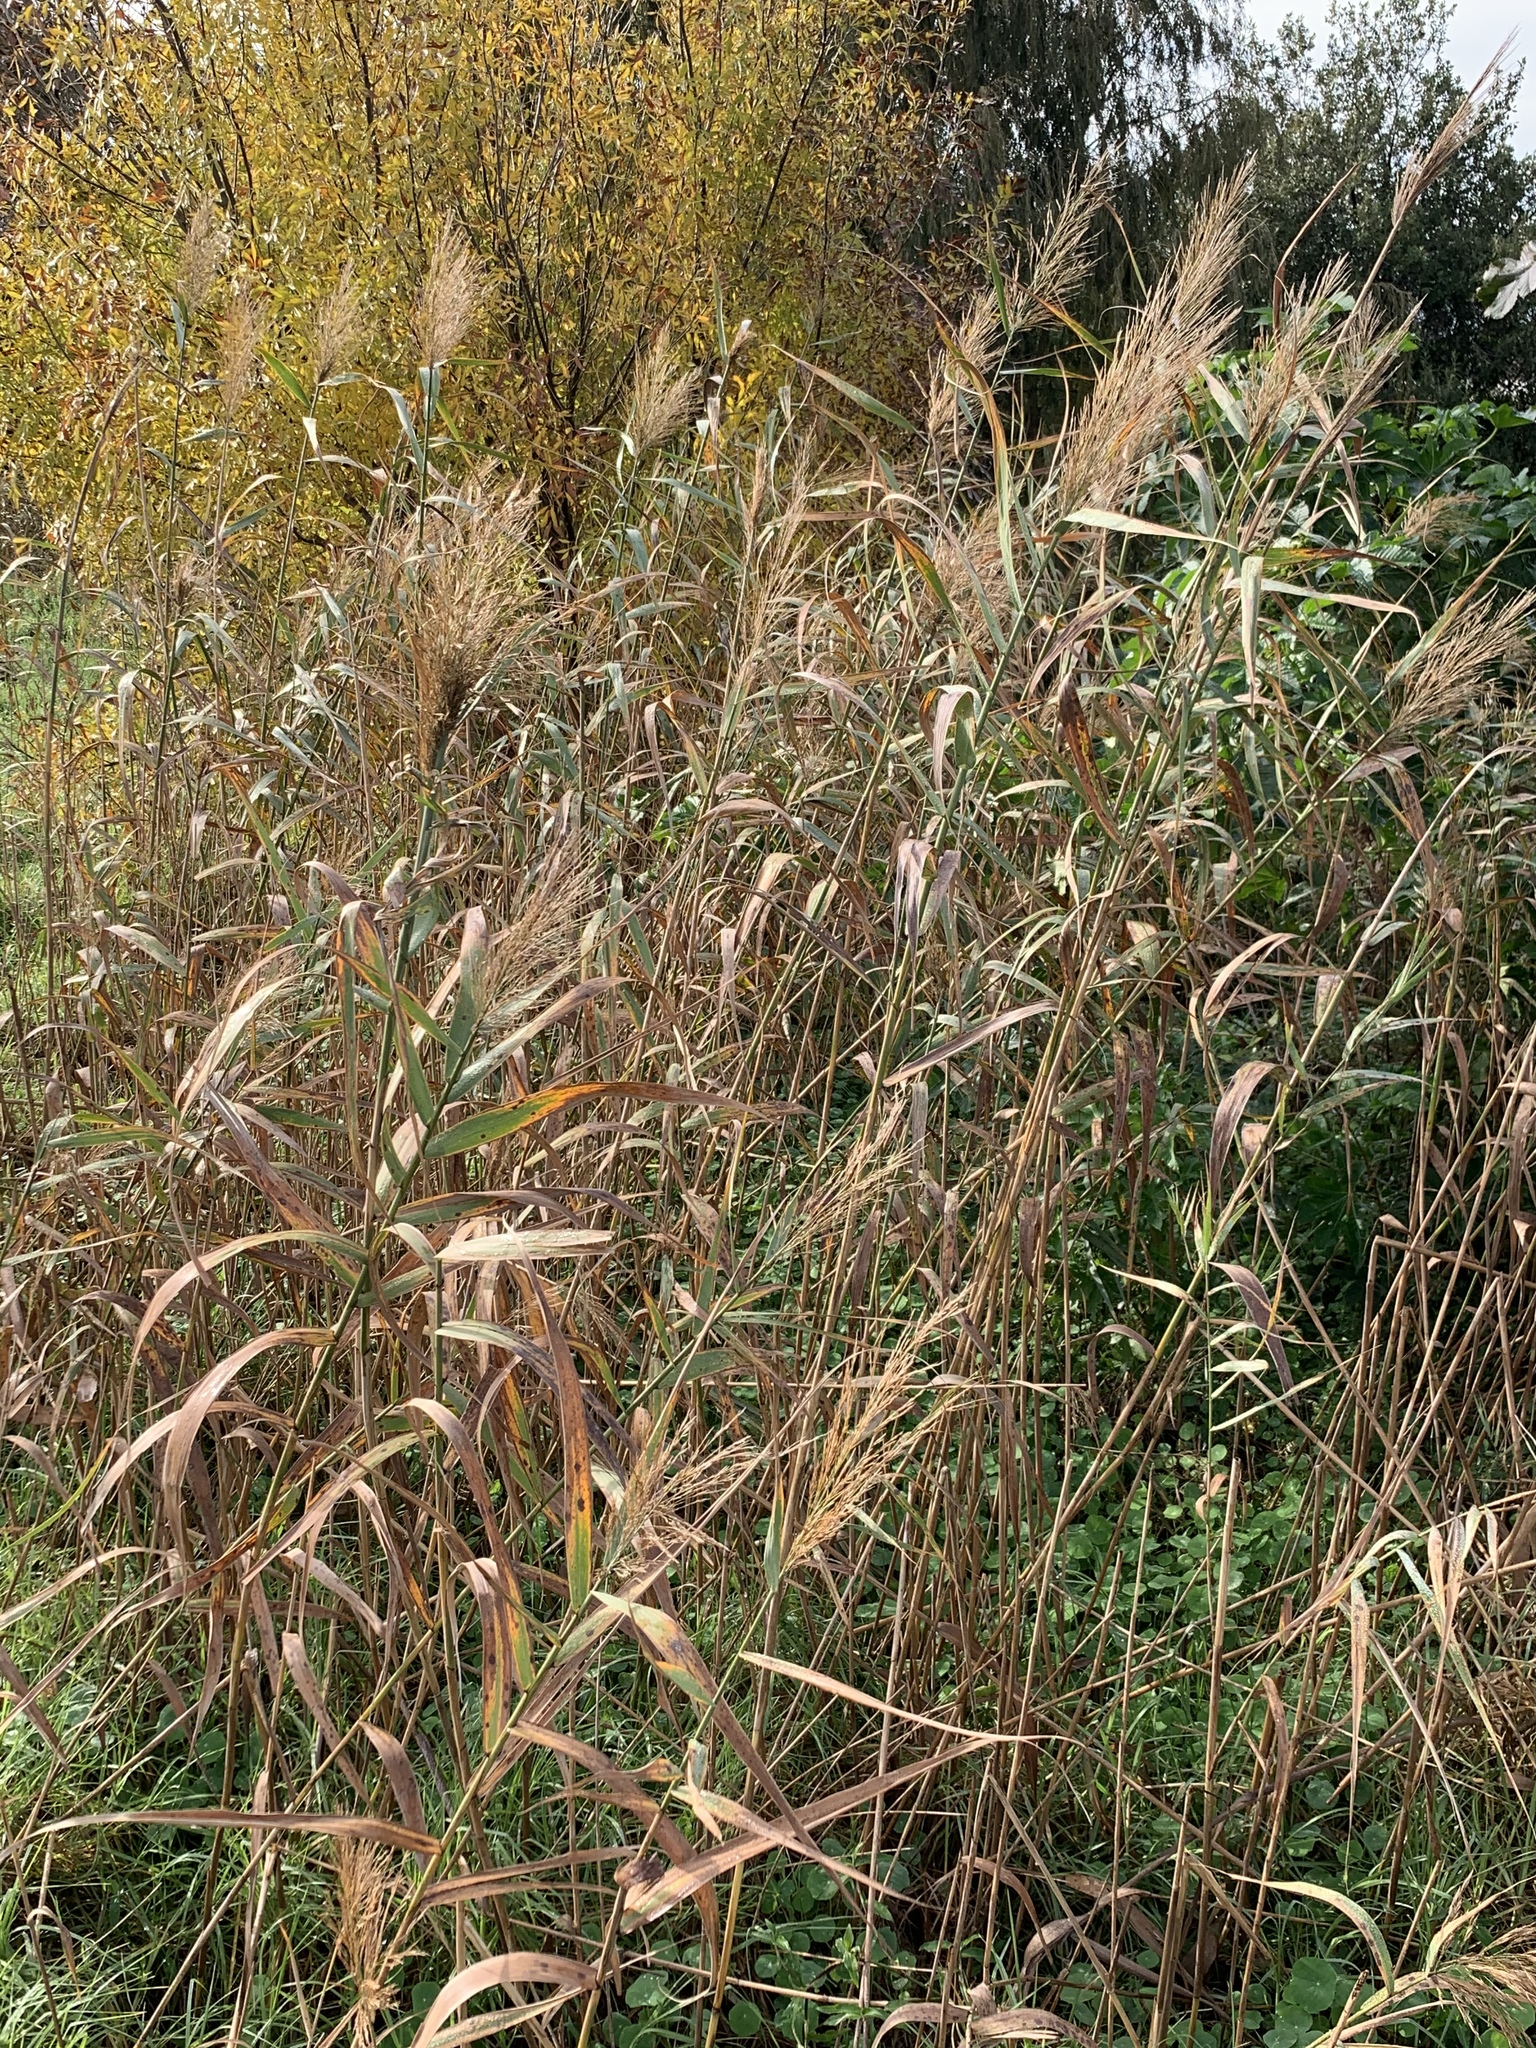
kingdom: Plantae
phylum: Tracheophyta
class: Liliopsida
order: Poales
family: Poaceae
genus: Phragmites
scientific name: Phragmites australis
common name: Common reed
